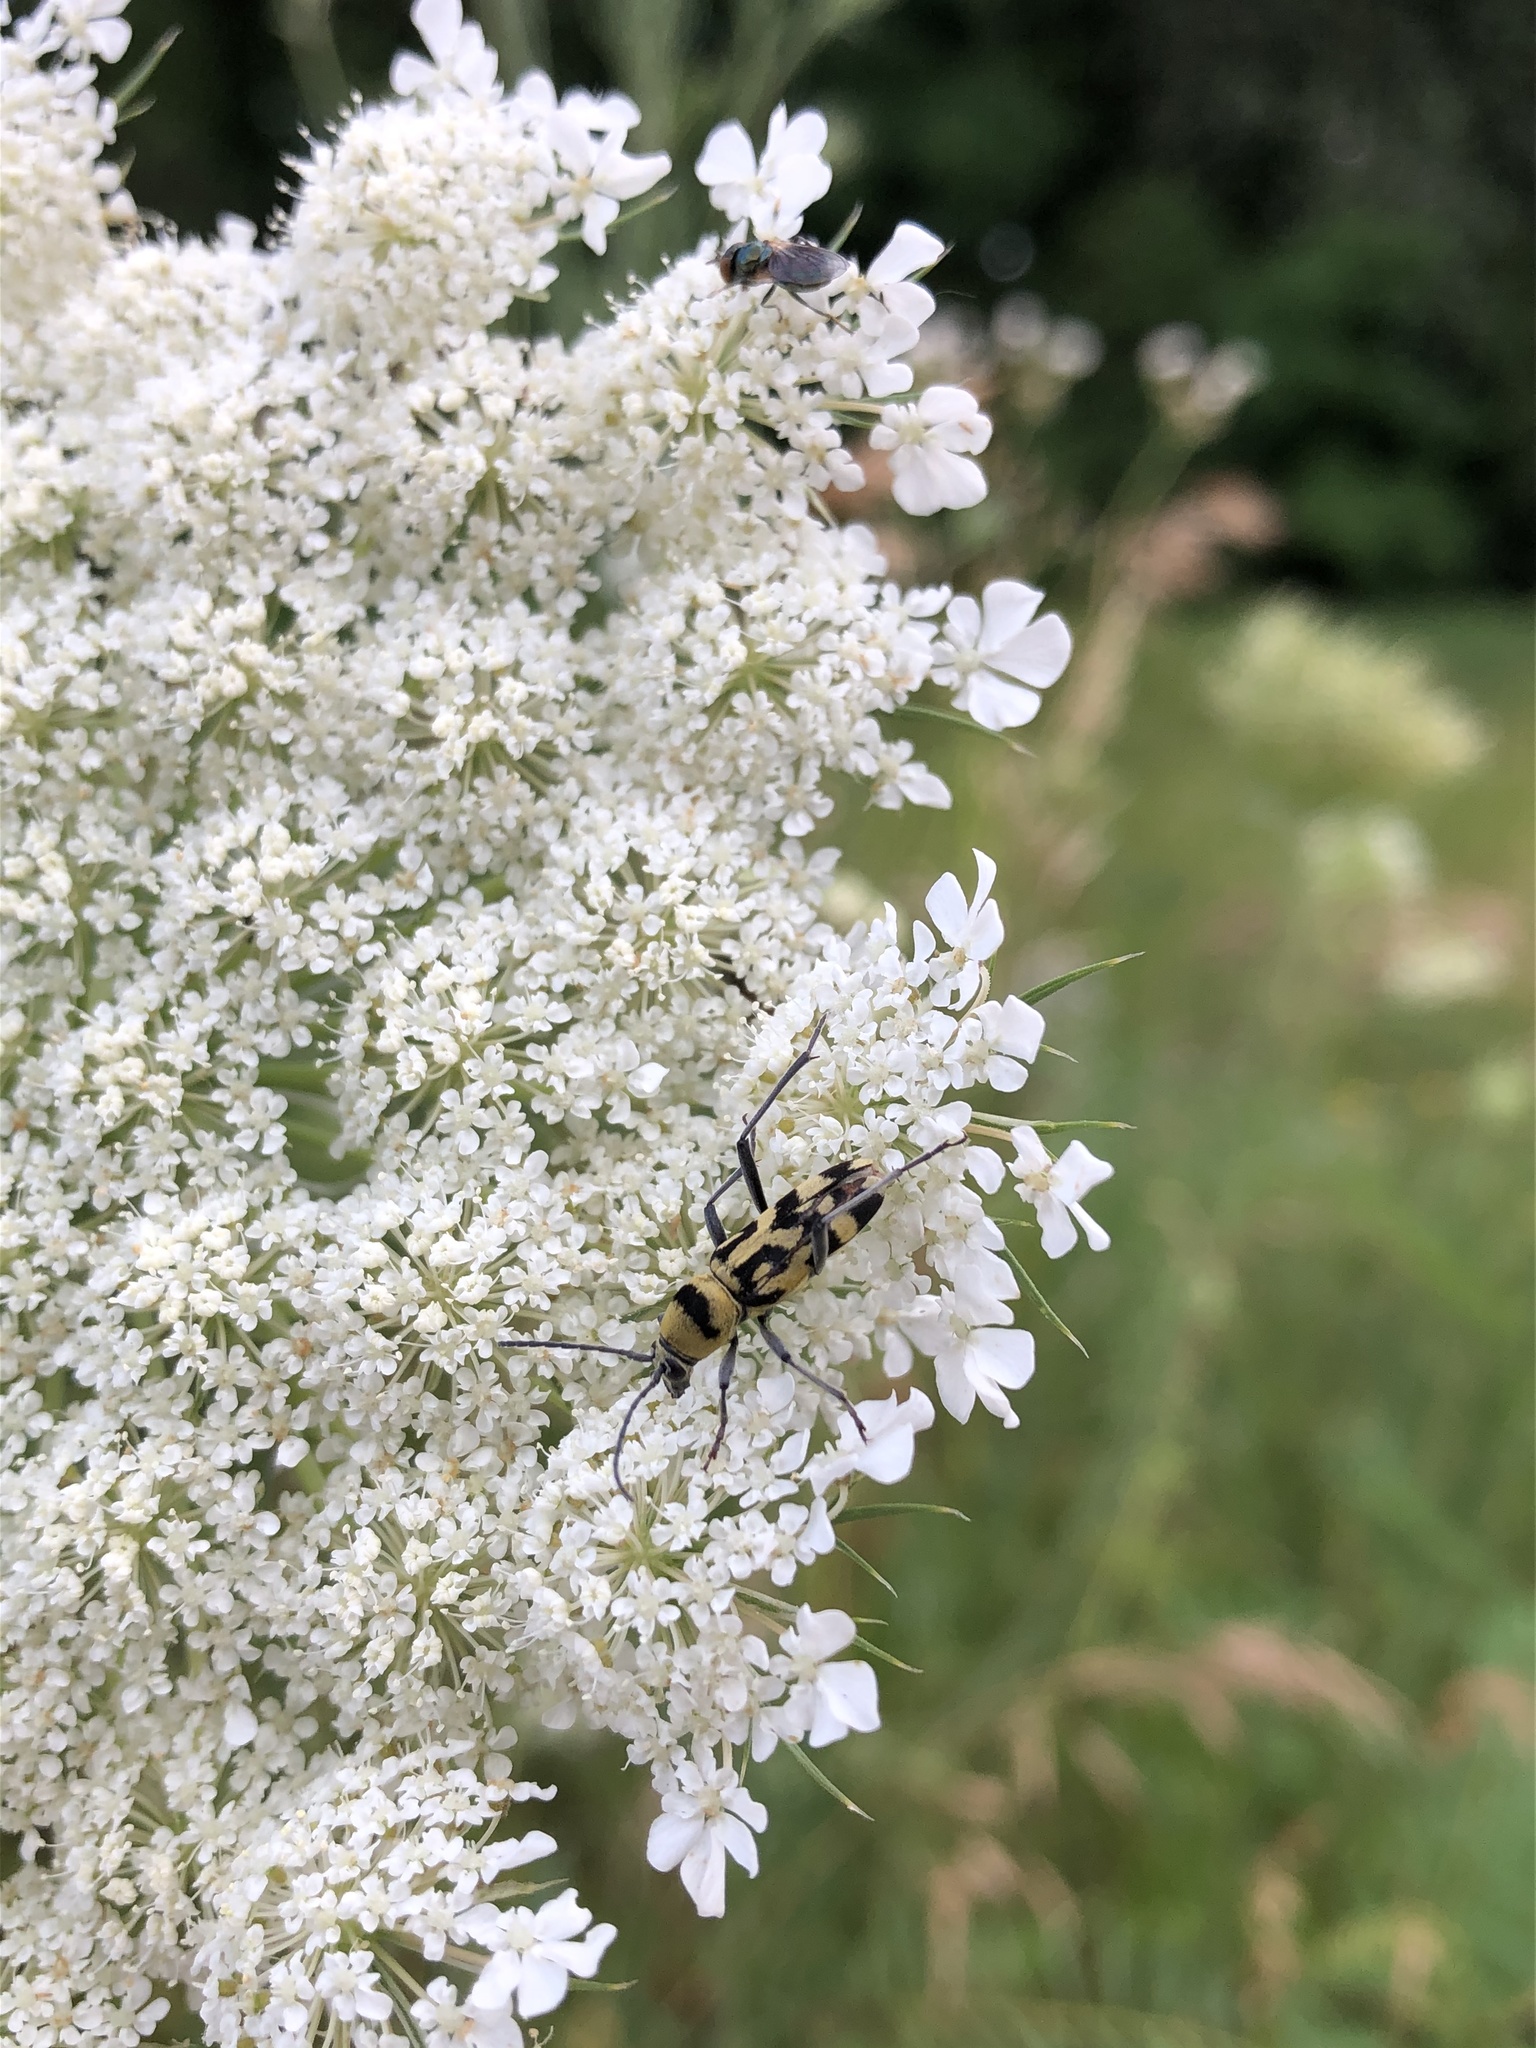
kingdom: Animalia
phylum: Arthropoda
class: Insecta
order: Coleoptera
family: Cerambycidae
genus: Chlorophorus
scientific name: Chlorophorus varius
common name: Grape wood borer
